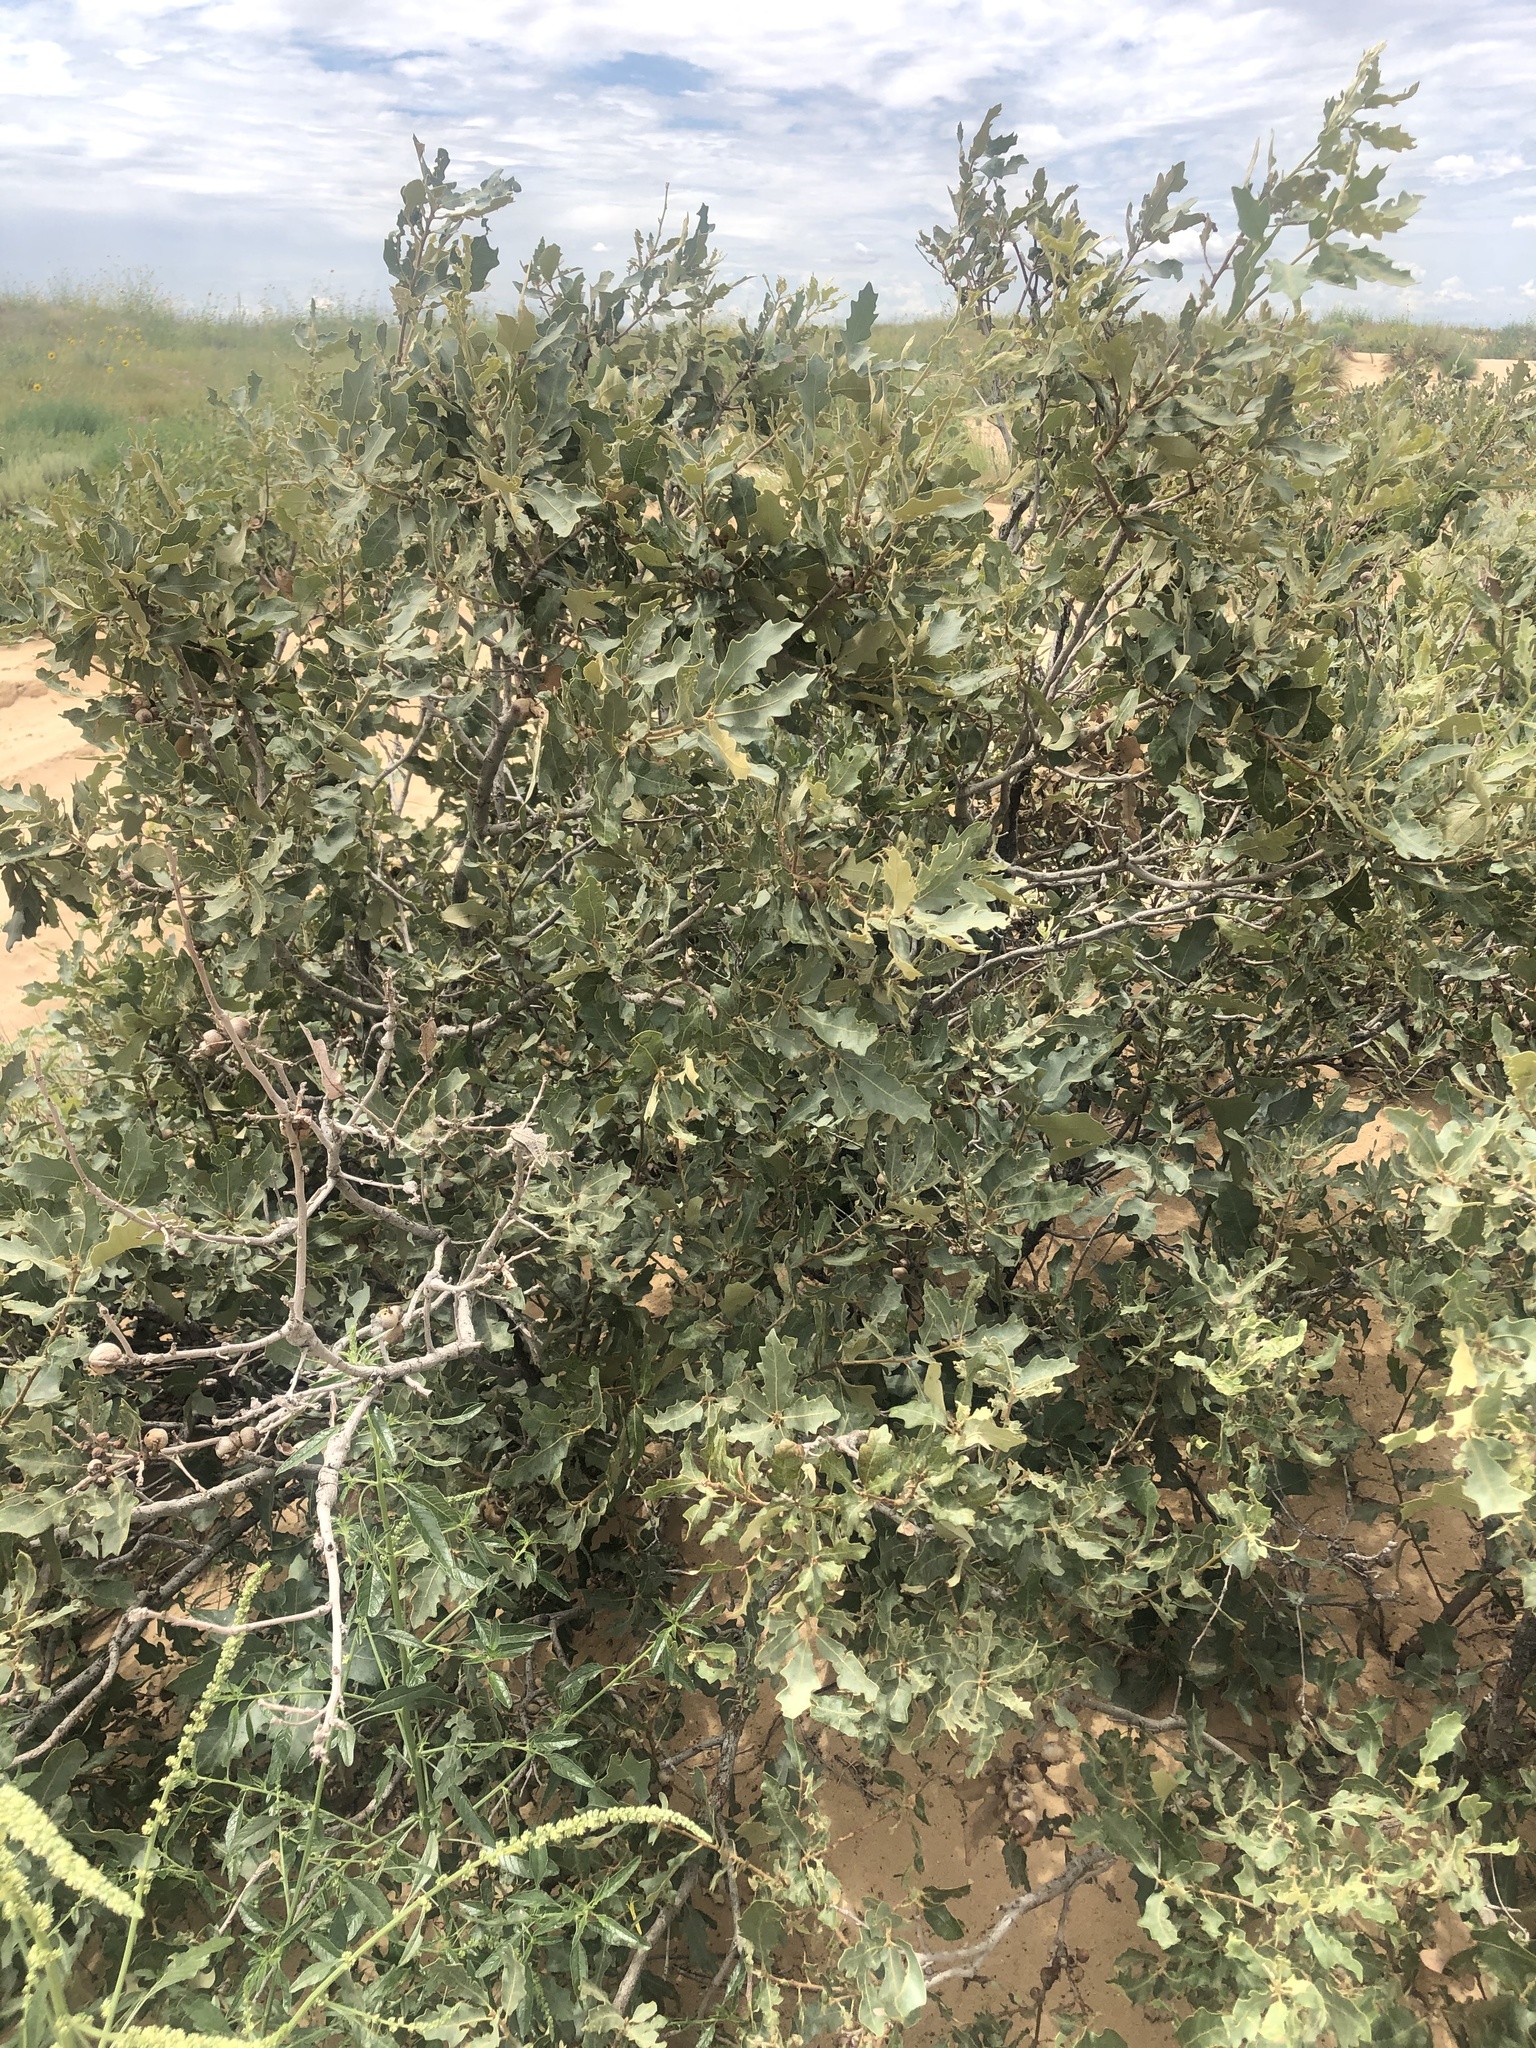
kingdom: Plantae
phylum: Tracheophyta
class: Magnoliopsida
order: Fagales
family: Fagaceae
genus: Quercus
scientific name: Quercus havardii
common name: Shinnery oak
